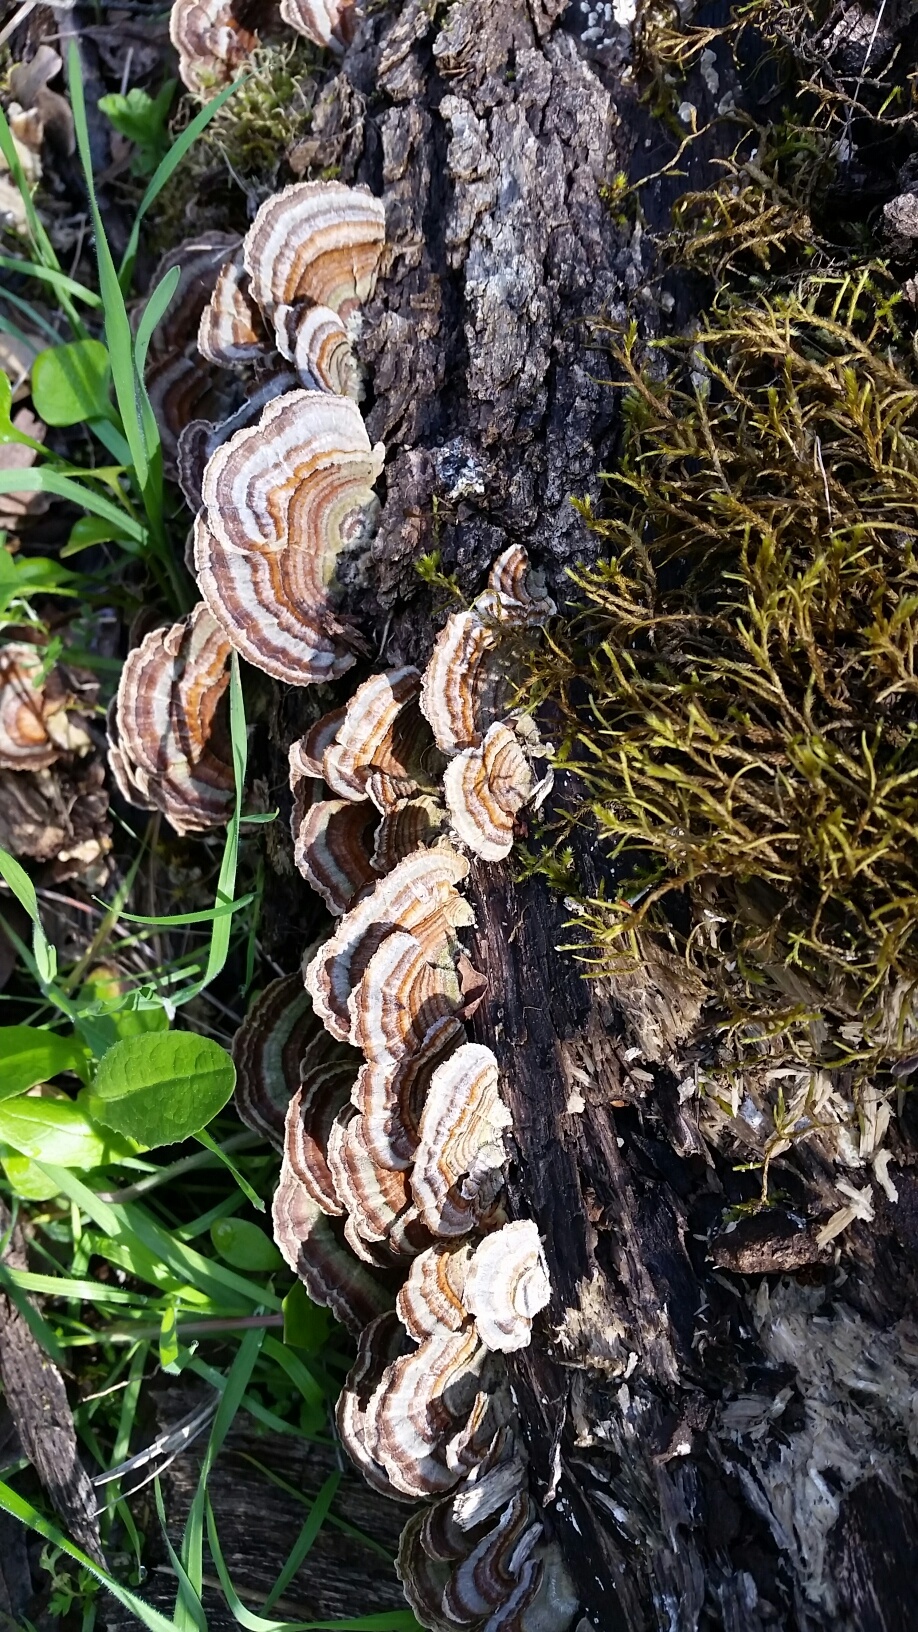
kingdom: Fungi
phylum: Basidiomycota
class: Agaricomycetes
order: Polyporales
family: Polyporaceae
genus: Trametes
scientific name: Trametes versicolor
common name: Turkeytail
